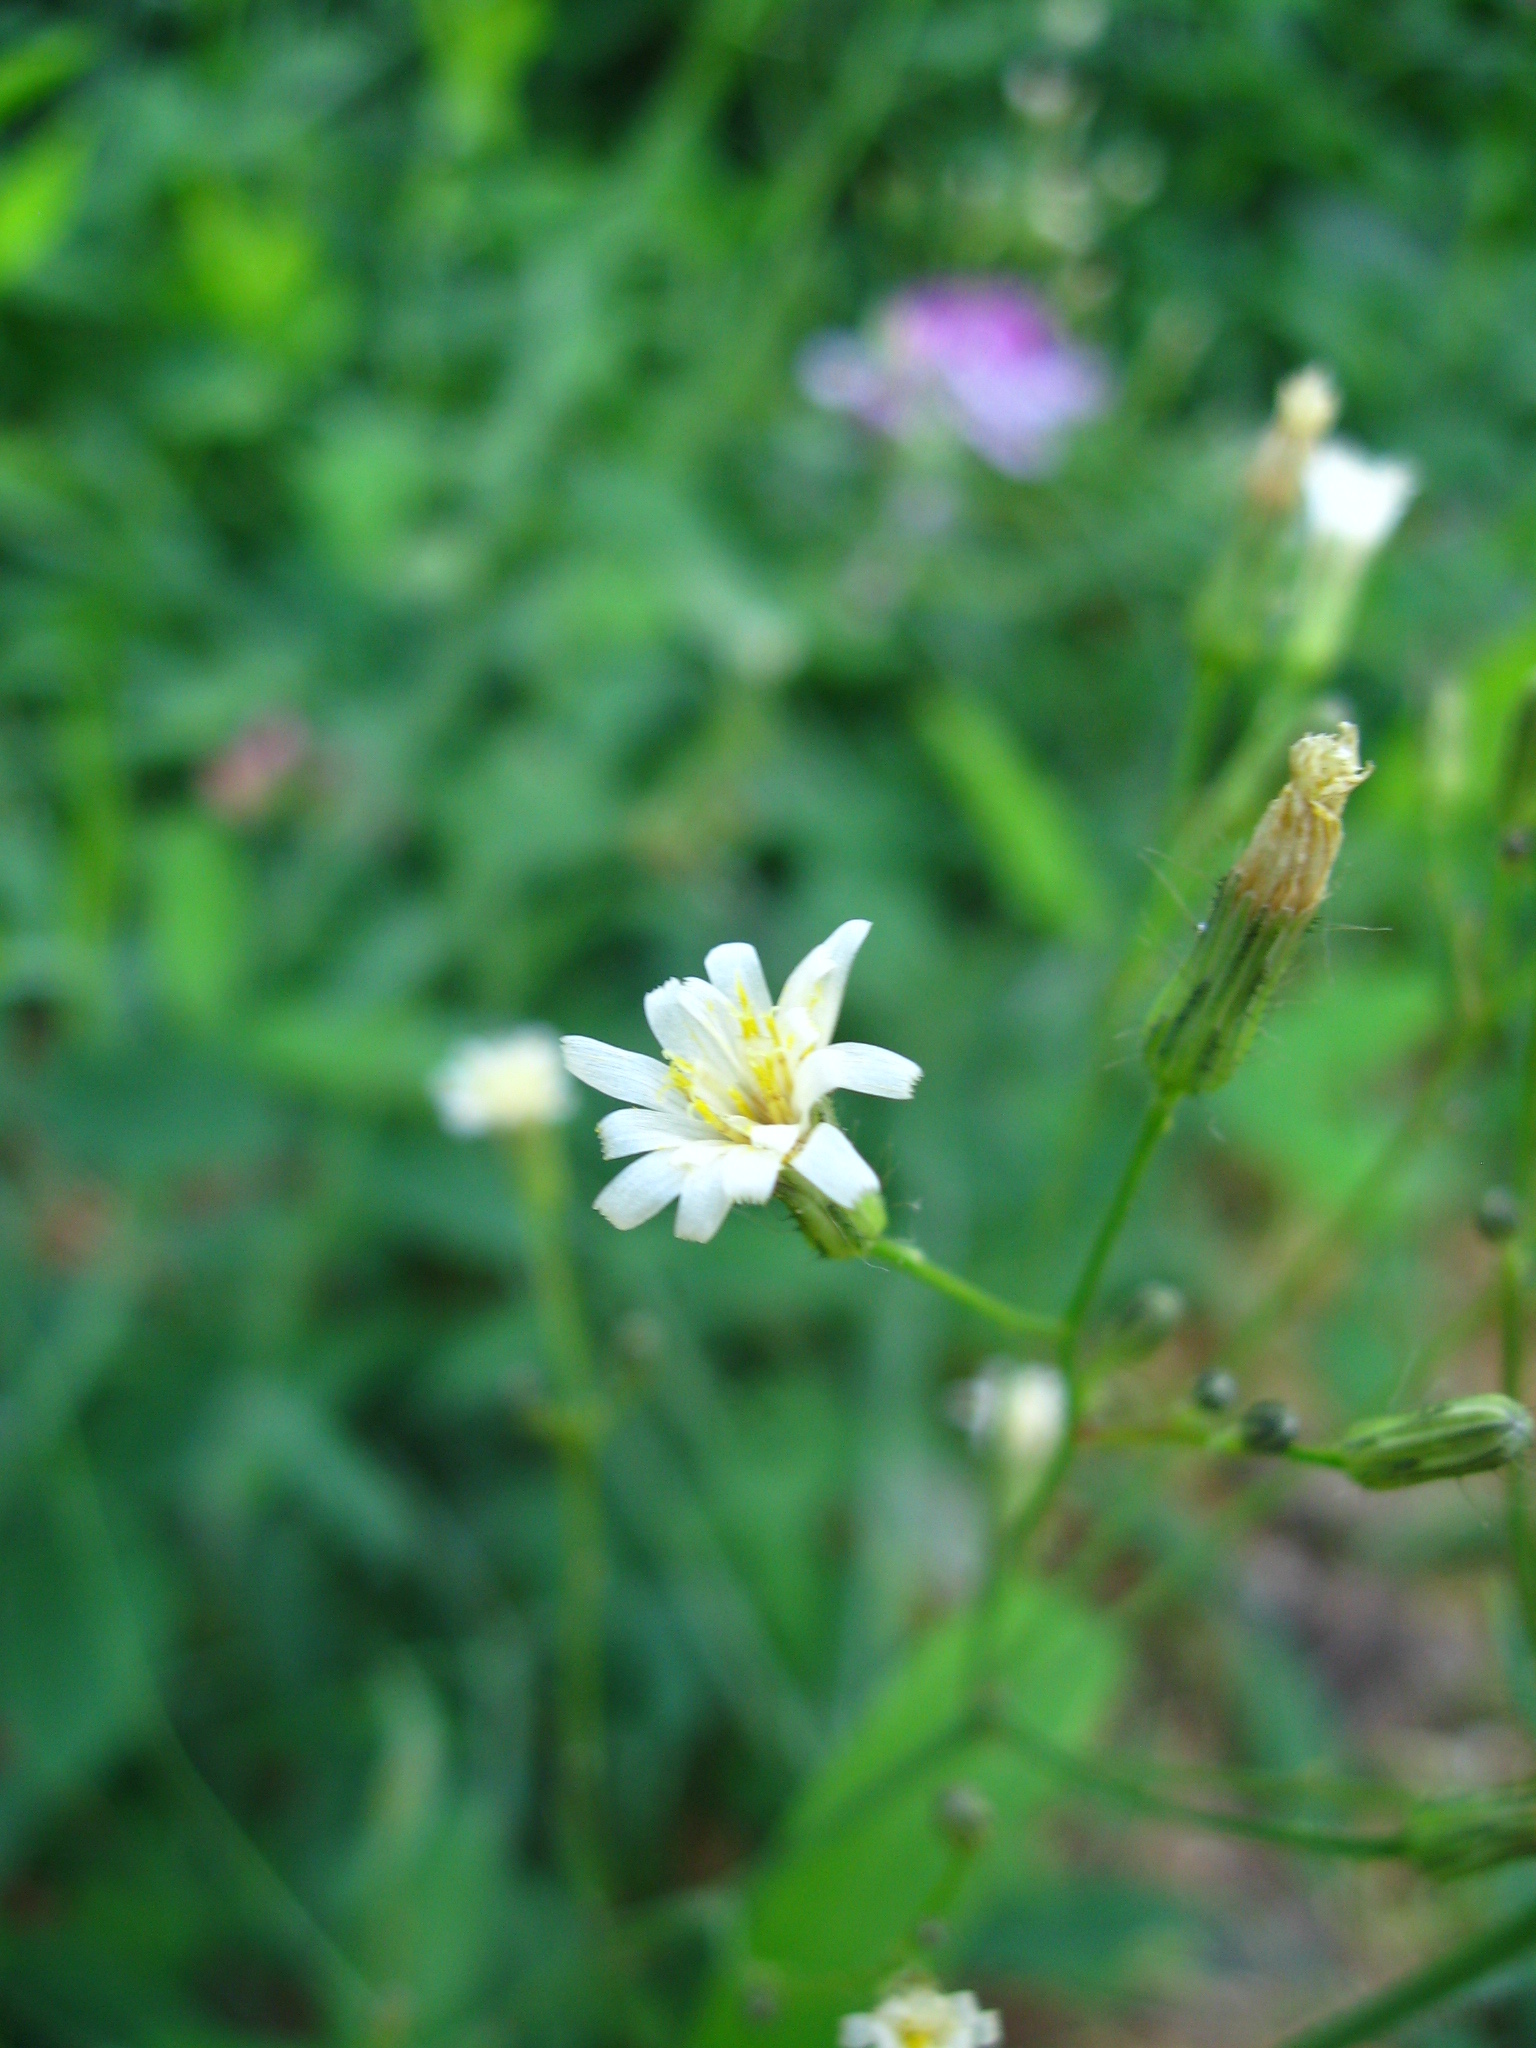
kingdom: Plantae
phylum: Tracheophyta
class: Magnoliopsida
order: Asterales
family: Asteraceae
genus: Hieracium
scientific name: Hieracium albiflorum
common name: White hawkweed
